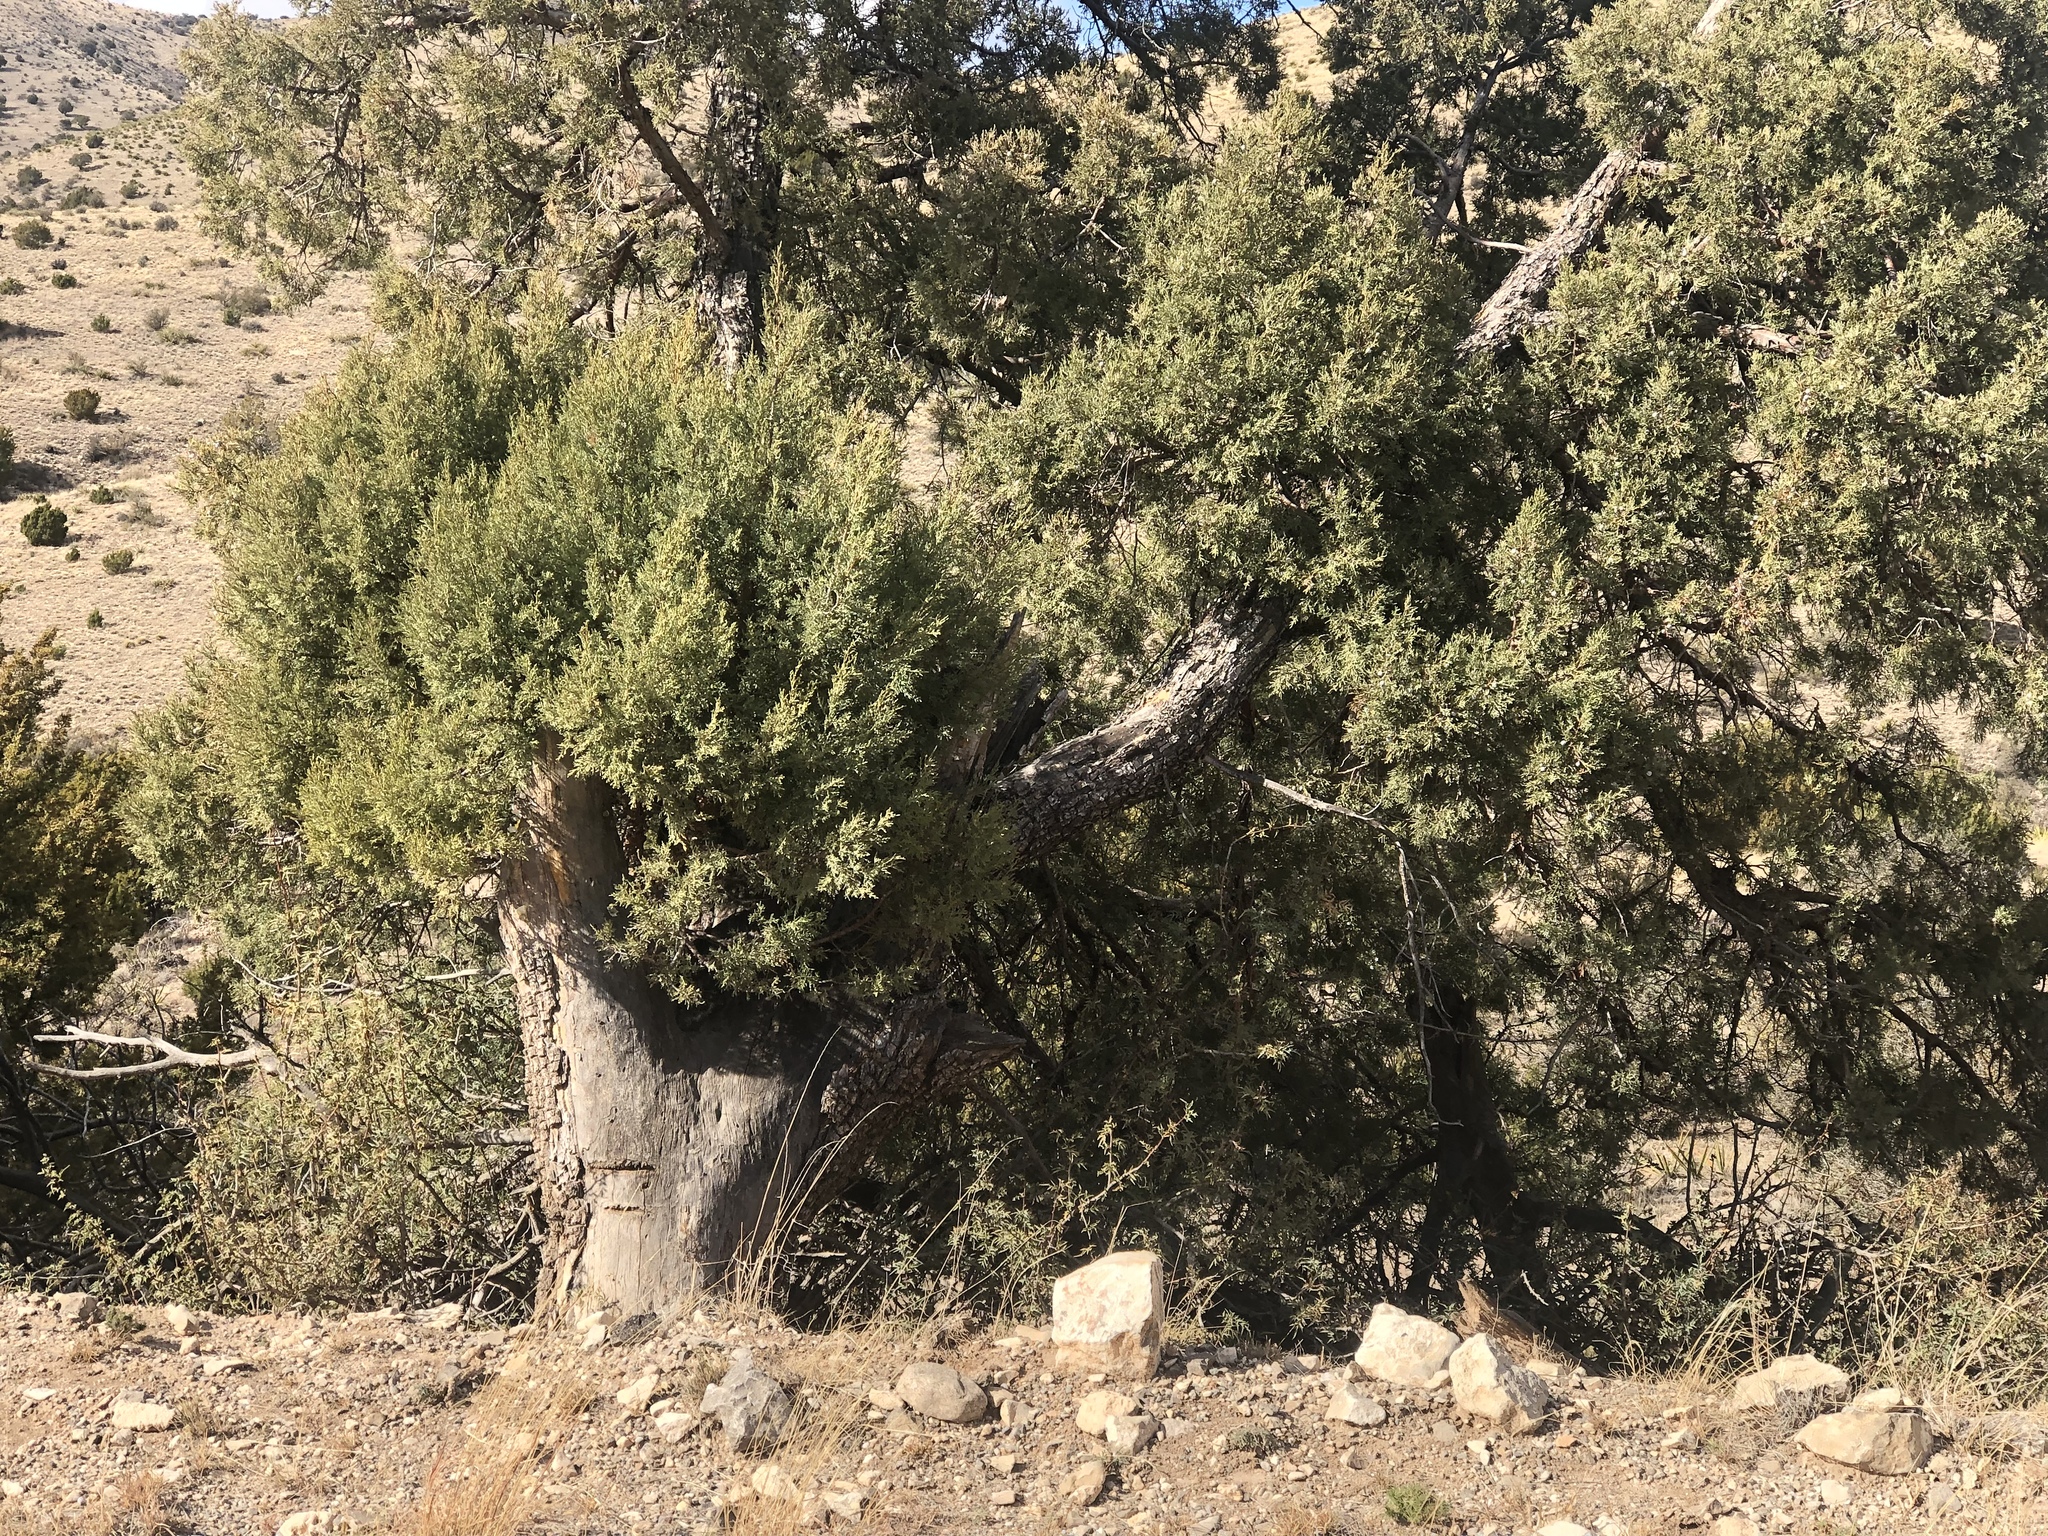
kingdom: Plantae
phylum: Tracheophyta
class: Pinopsida
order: Pinales
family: Cupressaceae
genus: Juniperus
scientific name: Juniperus deppeana
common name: Alligator juniper
